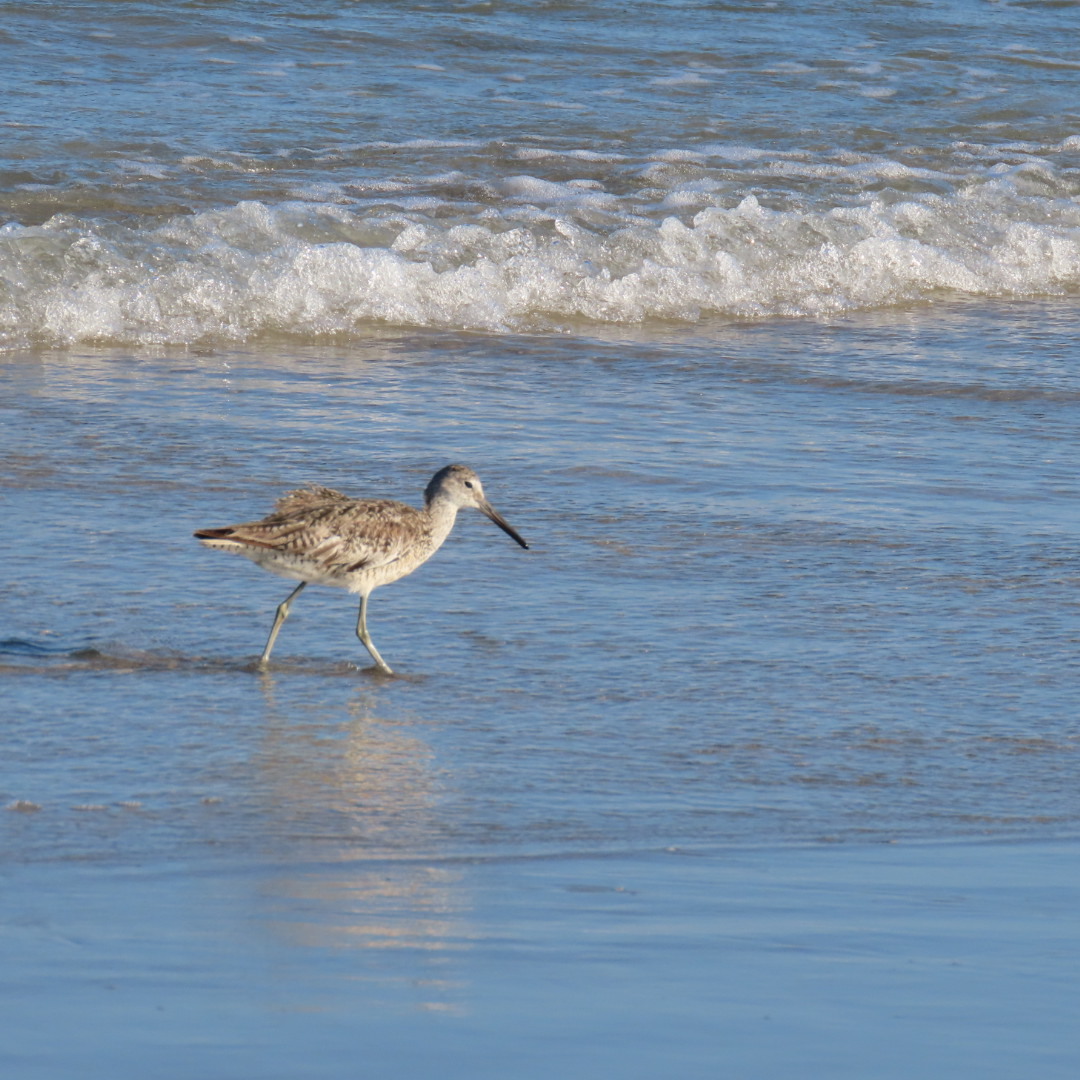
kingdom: Animalia
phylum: Chordata
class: Aves
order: Charadriiformes
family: Scolopacidae
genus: Tringa
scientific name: Tringa semipalmata
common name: Willet
